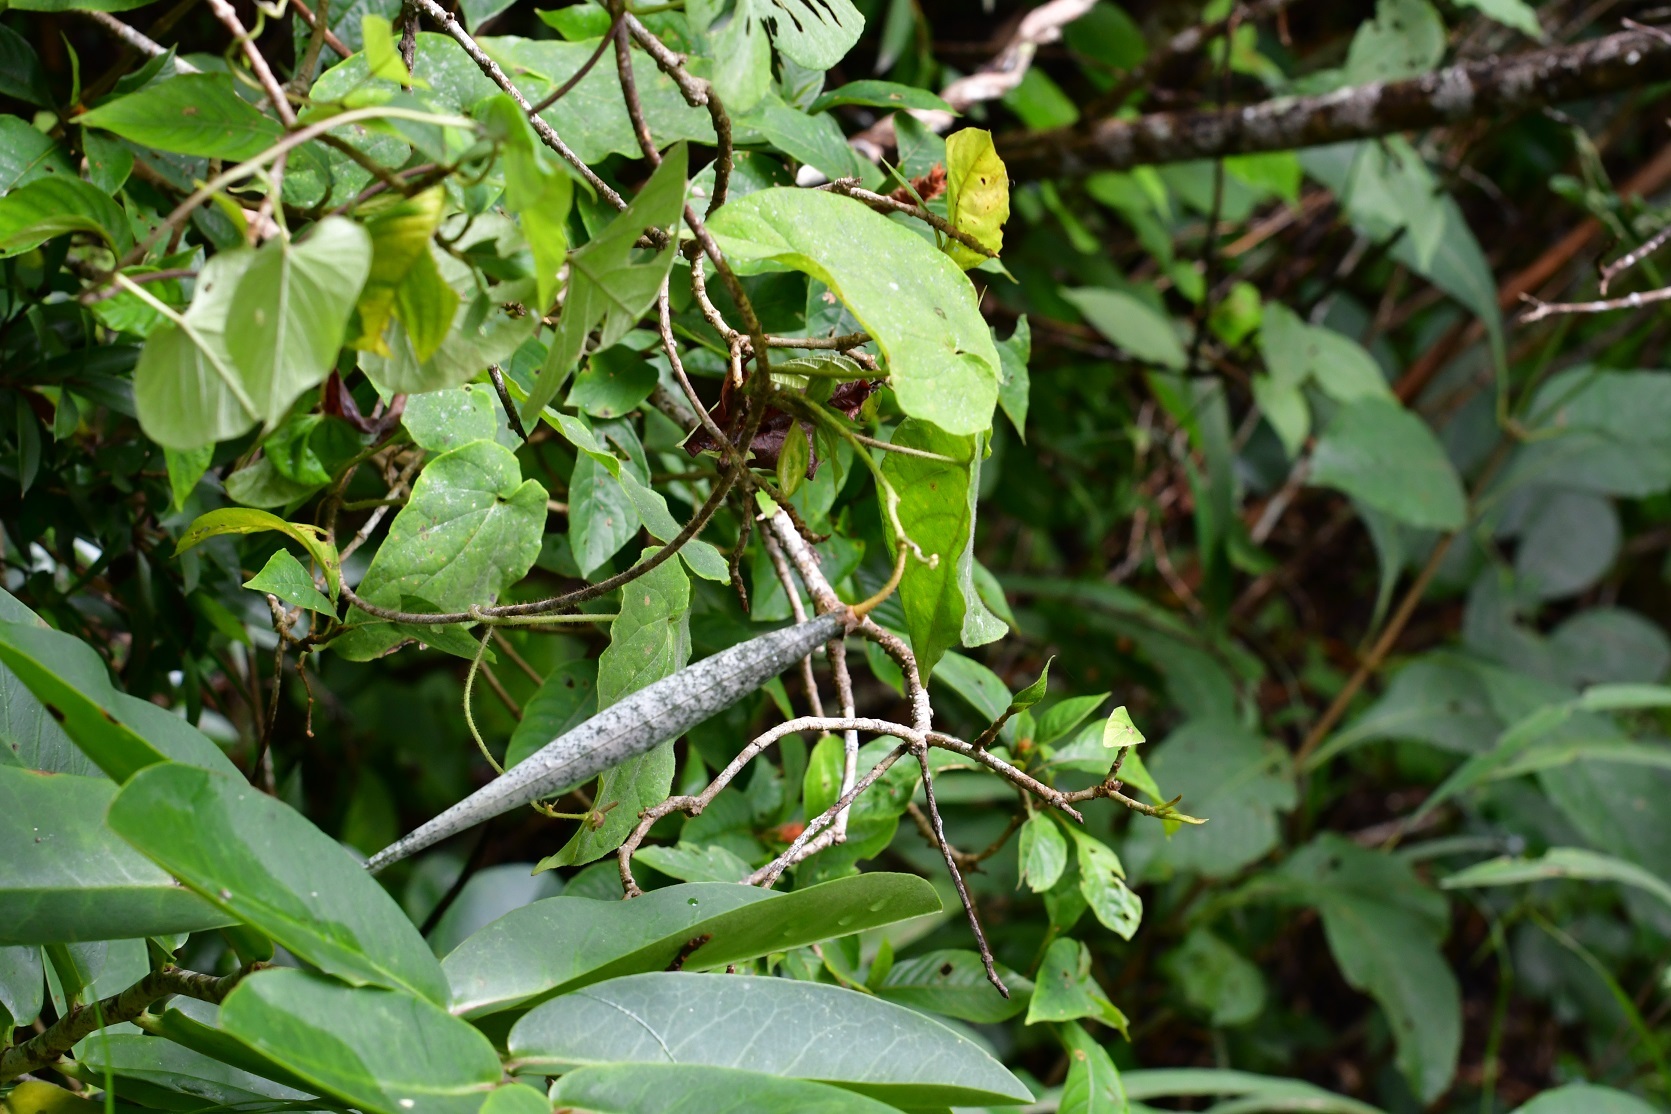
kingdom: Plantae
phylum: Tracheophyta
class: Magnoliopsida
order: Gentianales
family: Apocynaceae
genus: Polystemma
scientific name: Polystemma guatemalense
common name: Arborescente rattan
